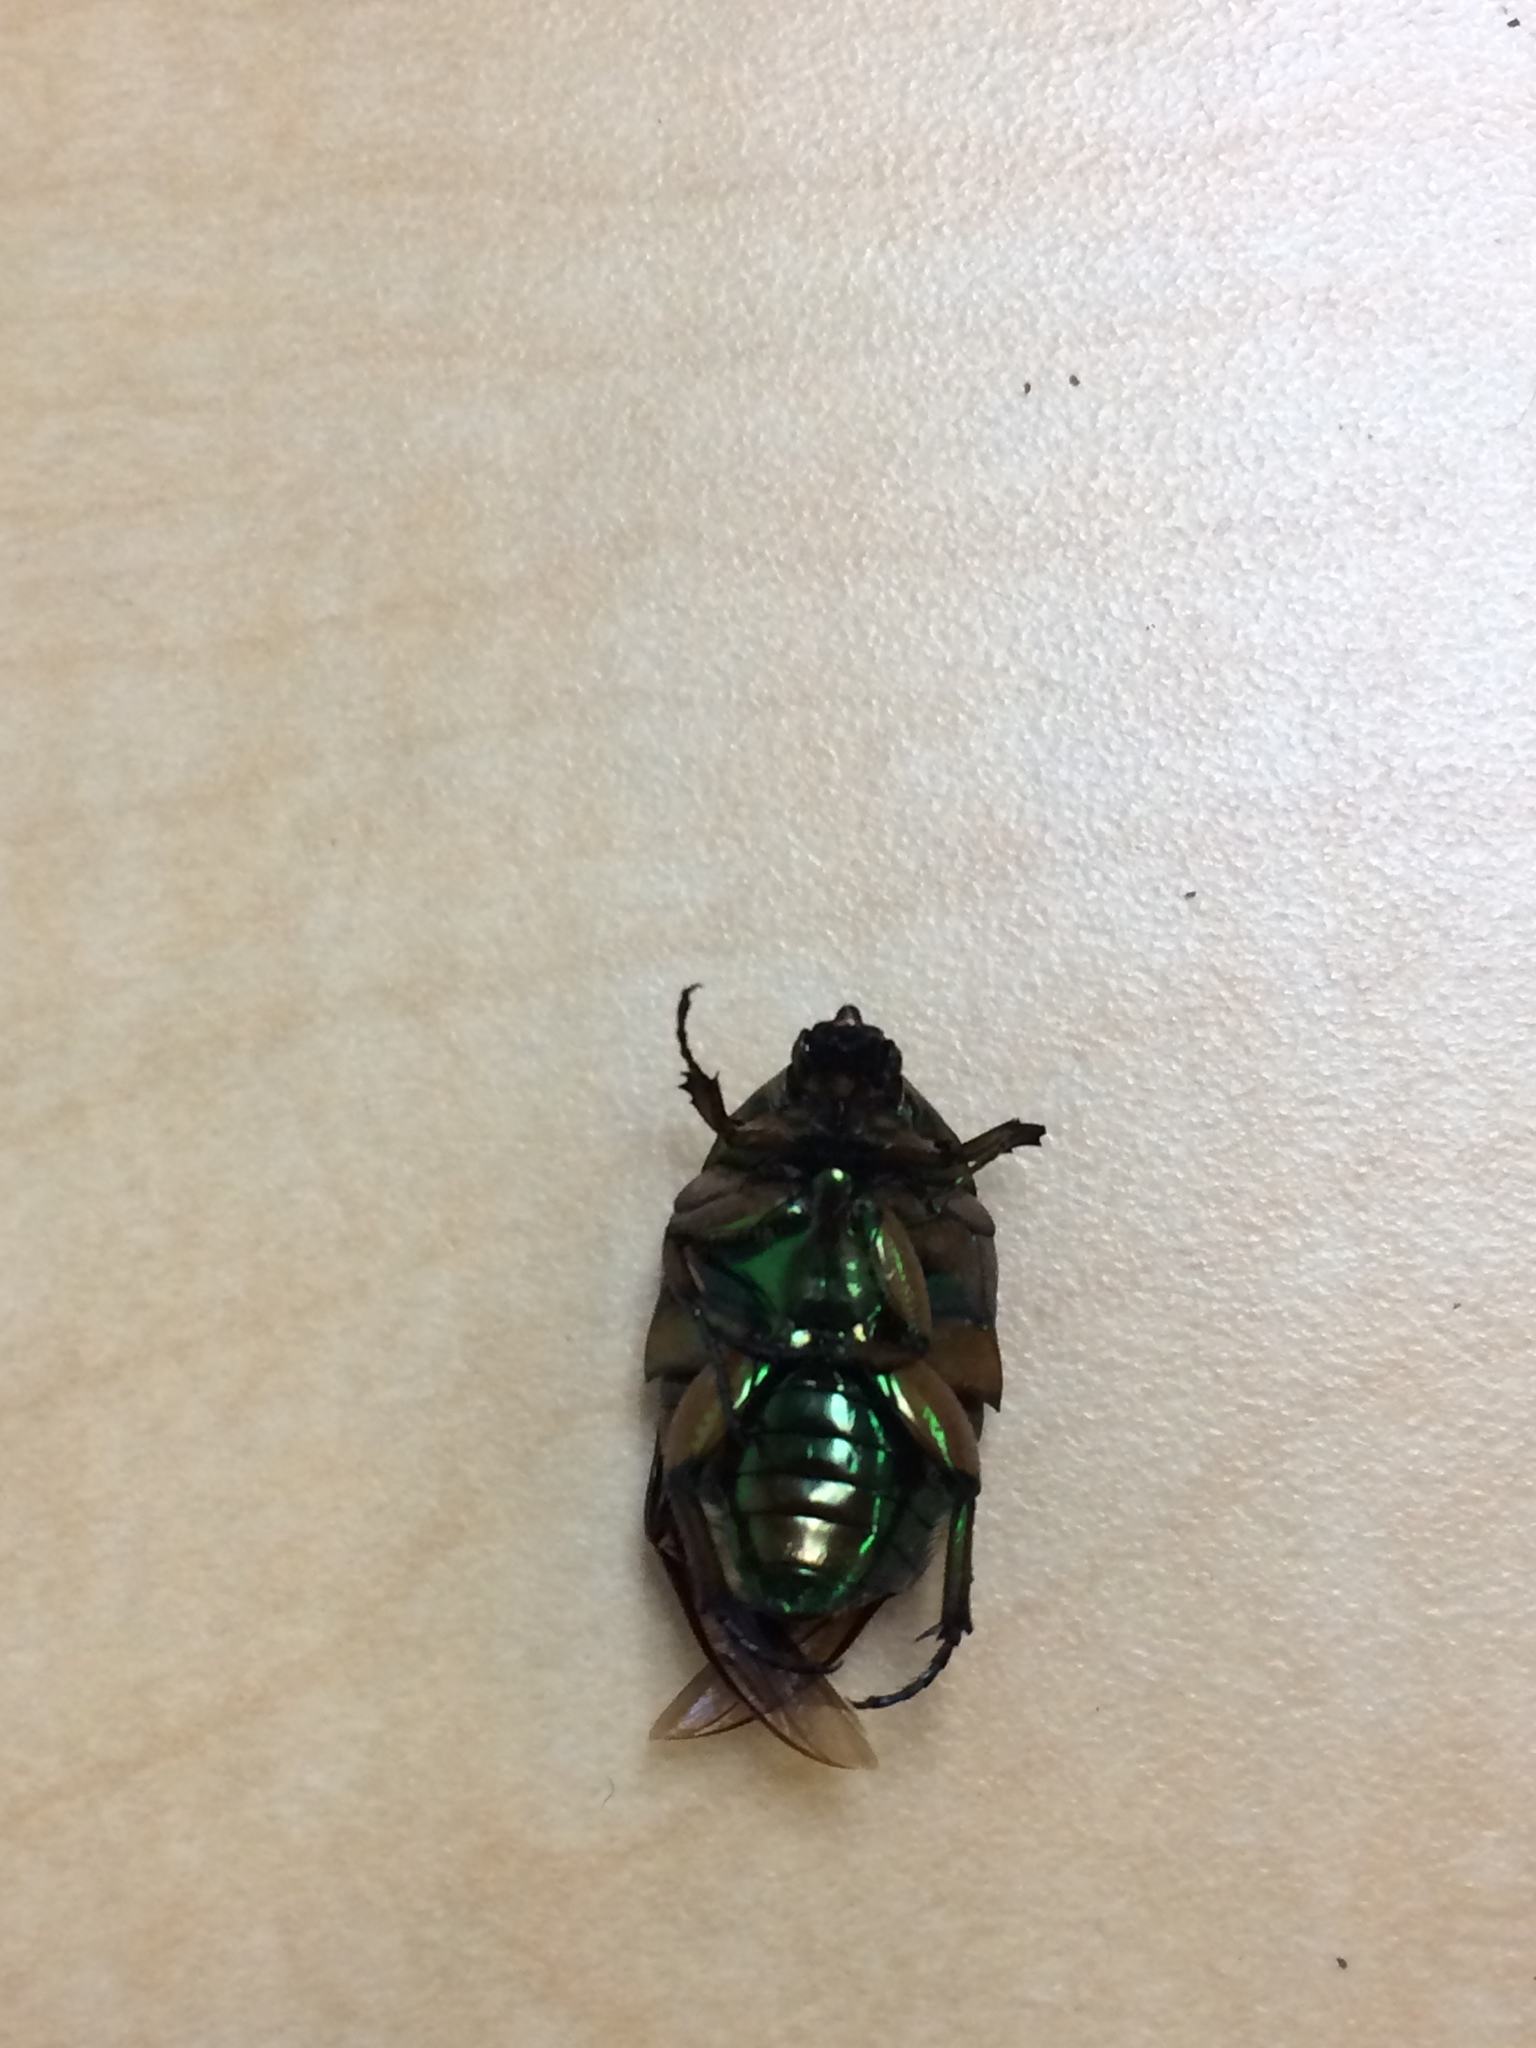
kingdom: Animalia
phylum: Arthropoda
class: Insecta
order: Coleoptera
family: Scarabaeidae
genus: Cotinis
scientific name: Cotinis nitida
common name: Common green june beetle
